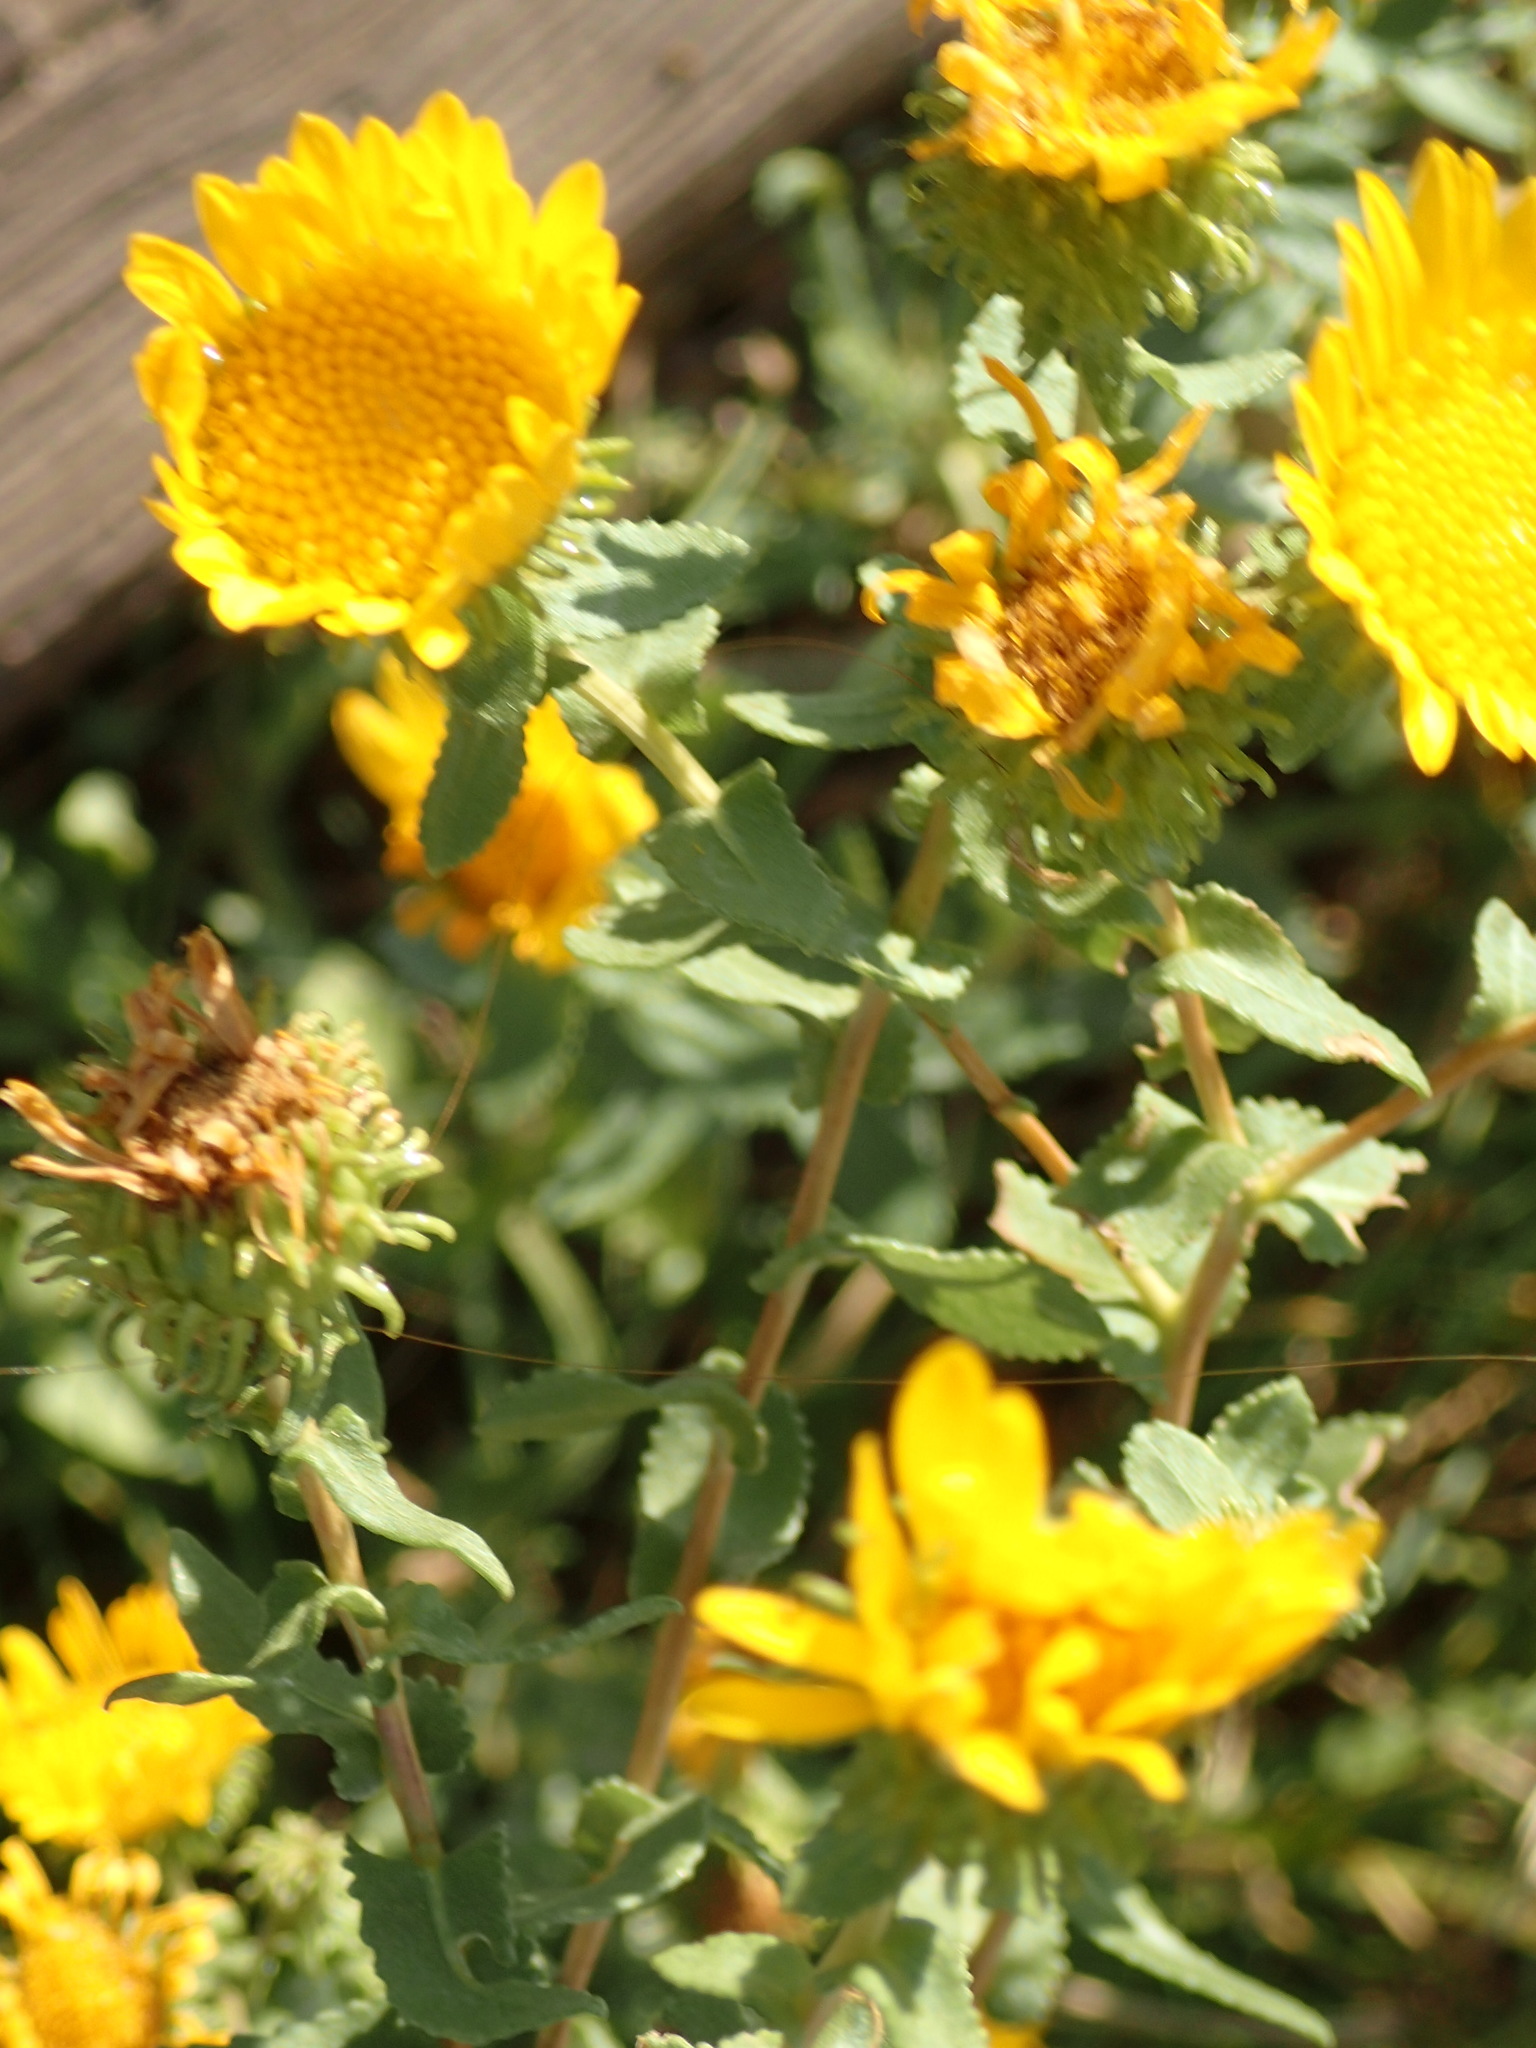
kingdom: Plantae
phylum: Tracheophyta
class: Magnoliopsida
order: Asterales
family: Asteraceae
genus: Grindelia
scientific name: Grindelia squarrosa
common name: Curly-cup gumweed
